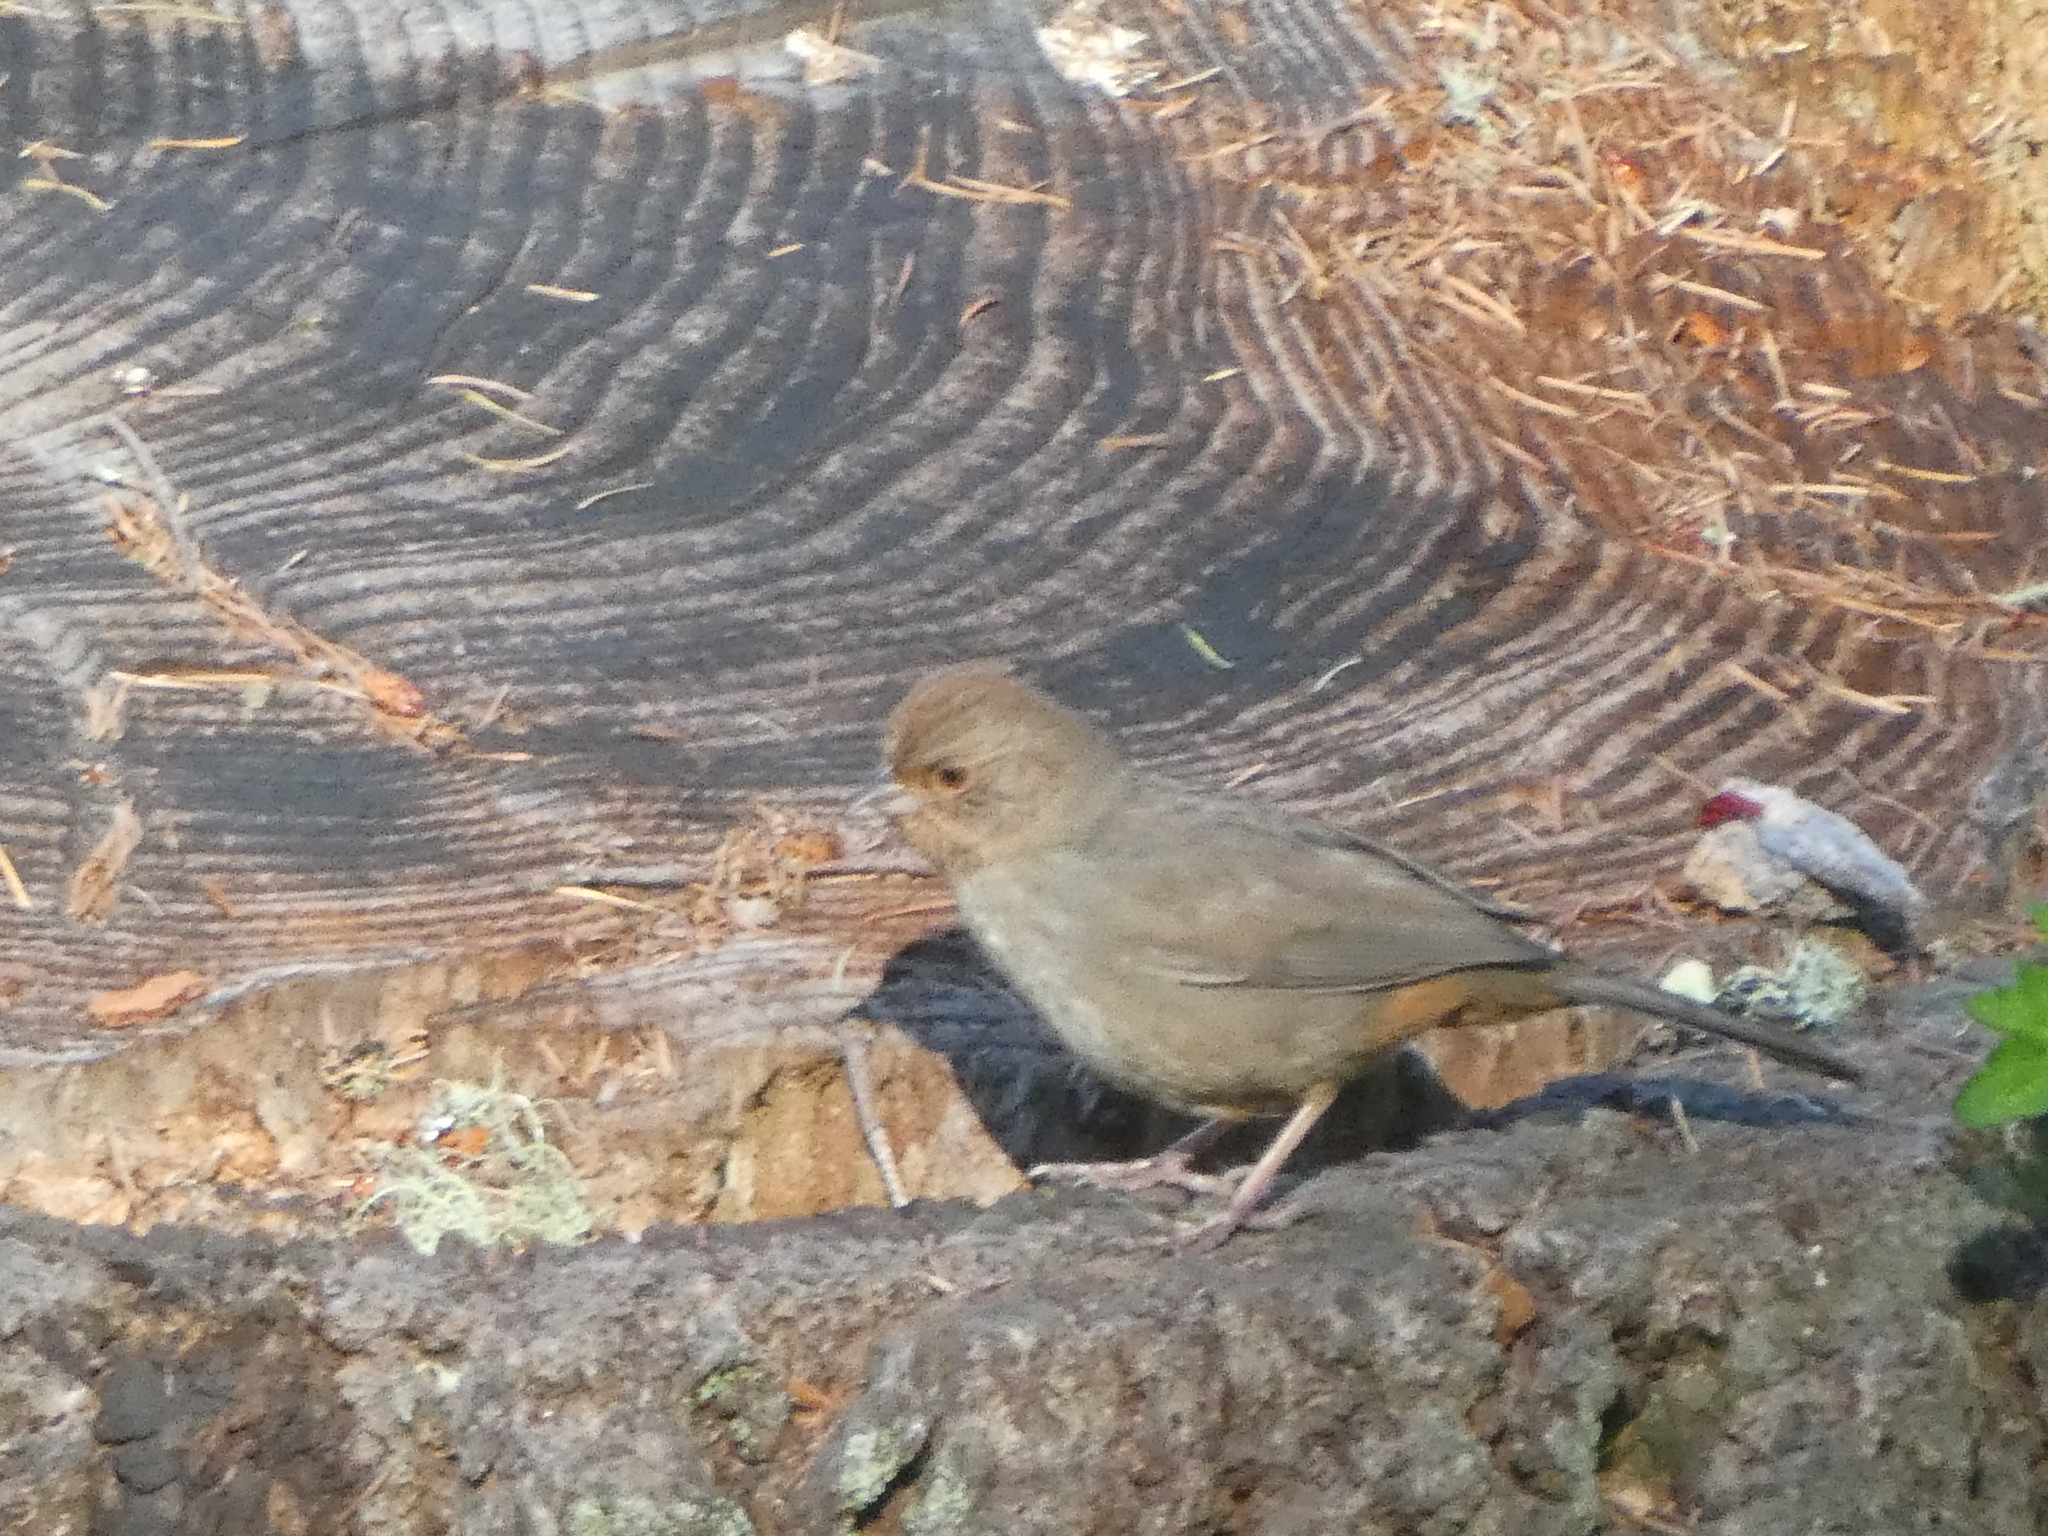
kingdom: Animalia
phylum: Chordata
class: Aves
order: Passeriformes
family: Passerellidae
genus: Melozone
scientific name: Melozone crissalis
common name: California towhee
